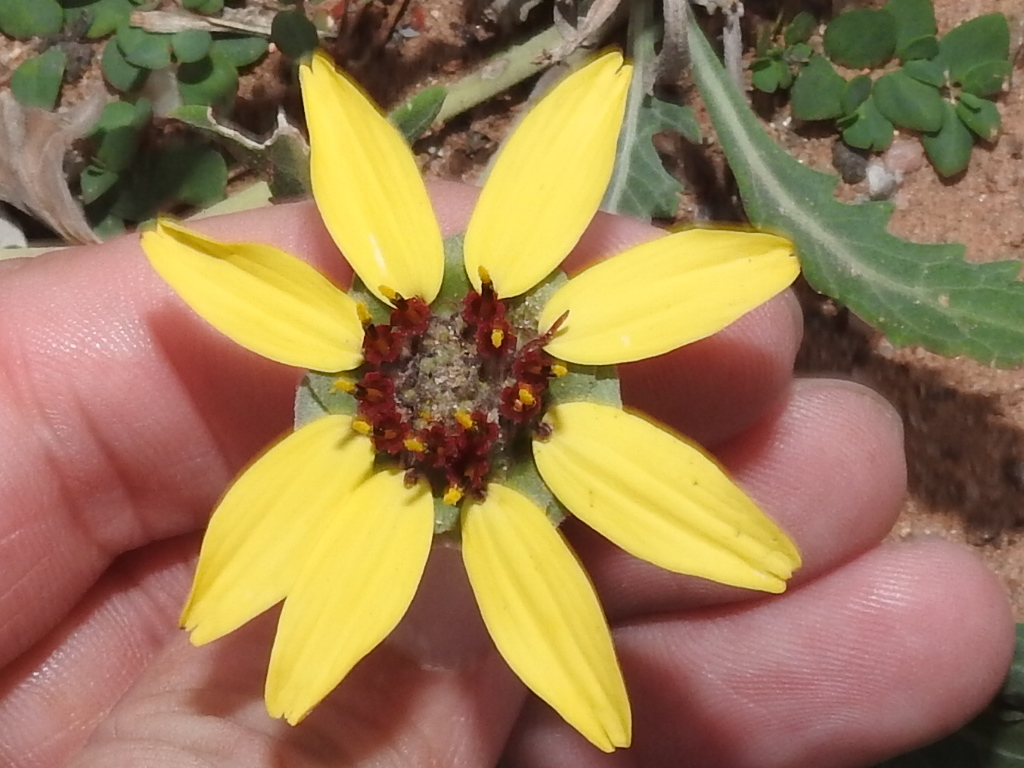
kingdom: Plantae
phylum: Tracheophyta
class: Magnoliopsida
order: Asterales
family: Asteraceae
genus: Berlandiera
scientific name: Berlandiera lyrata
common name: Chocolate-flower
